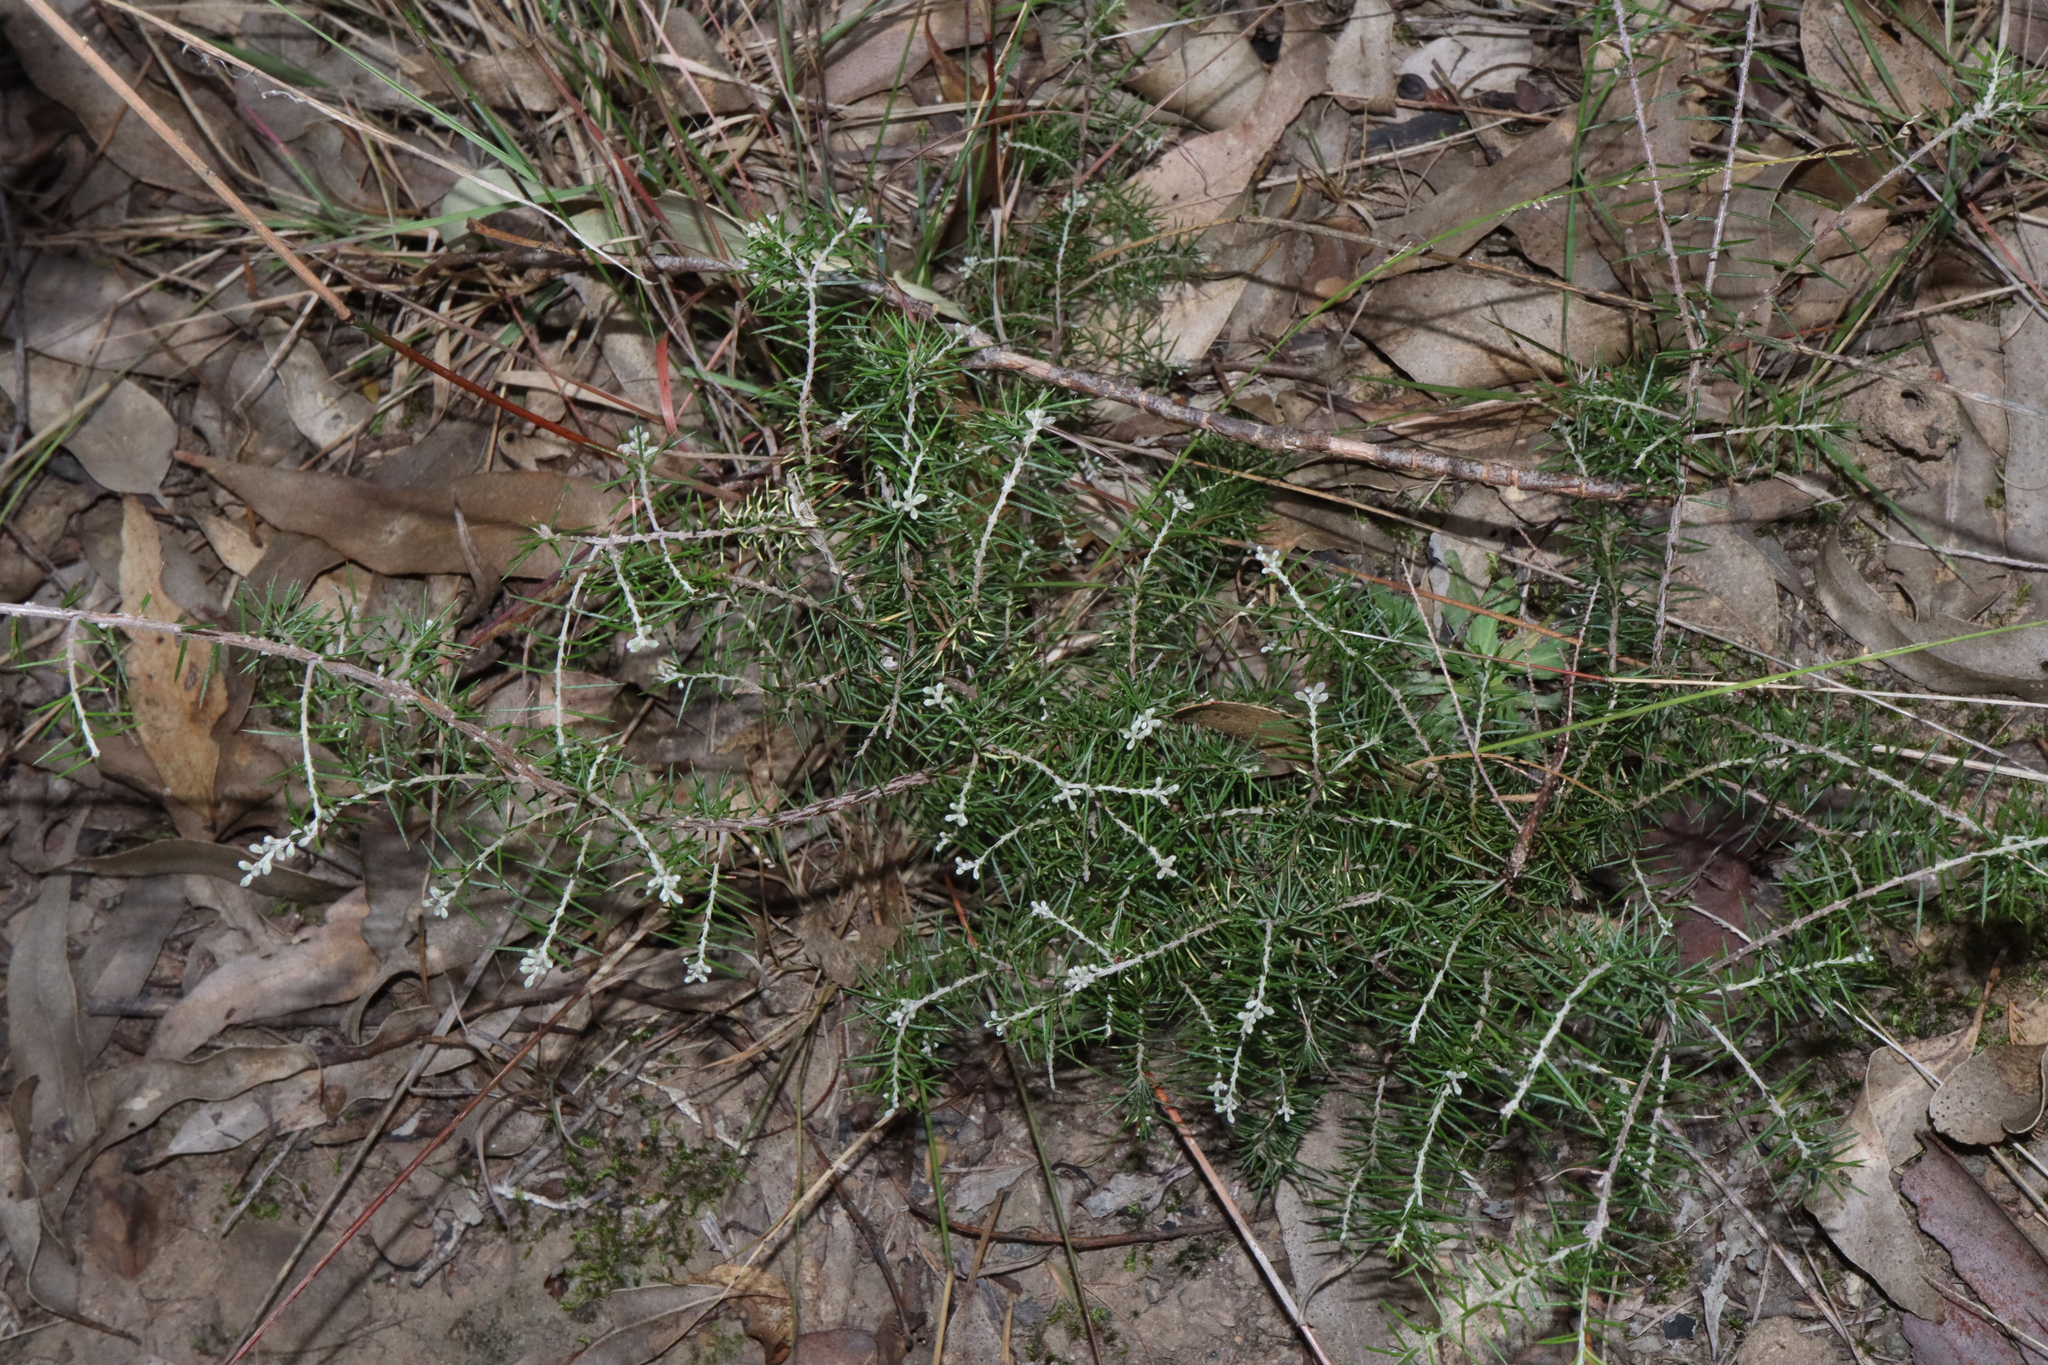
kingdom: Plantae
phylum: Tracheophyta
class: Magnoliopsida
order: Fabales
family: Fabaceae
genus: Dillwynia
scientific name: Dillwynia sieberi
